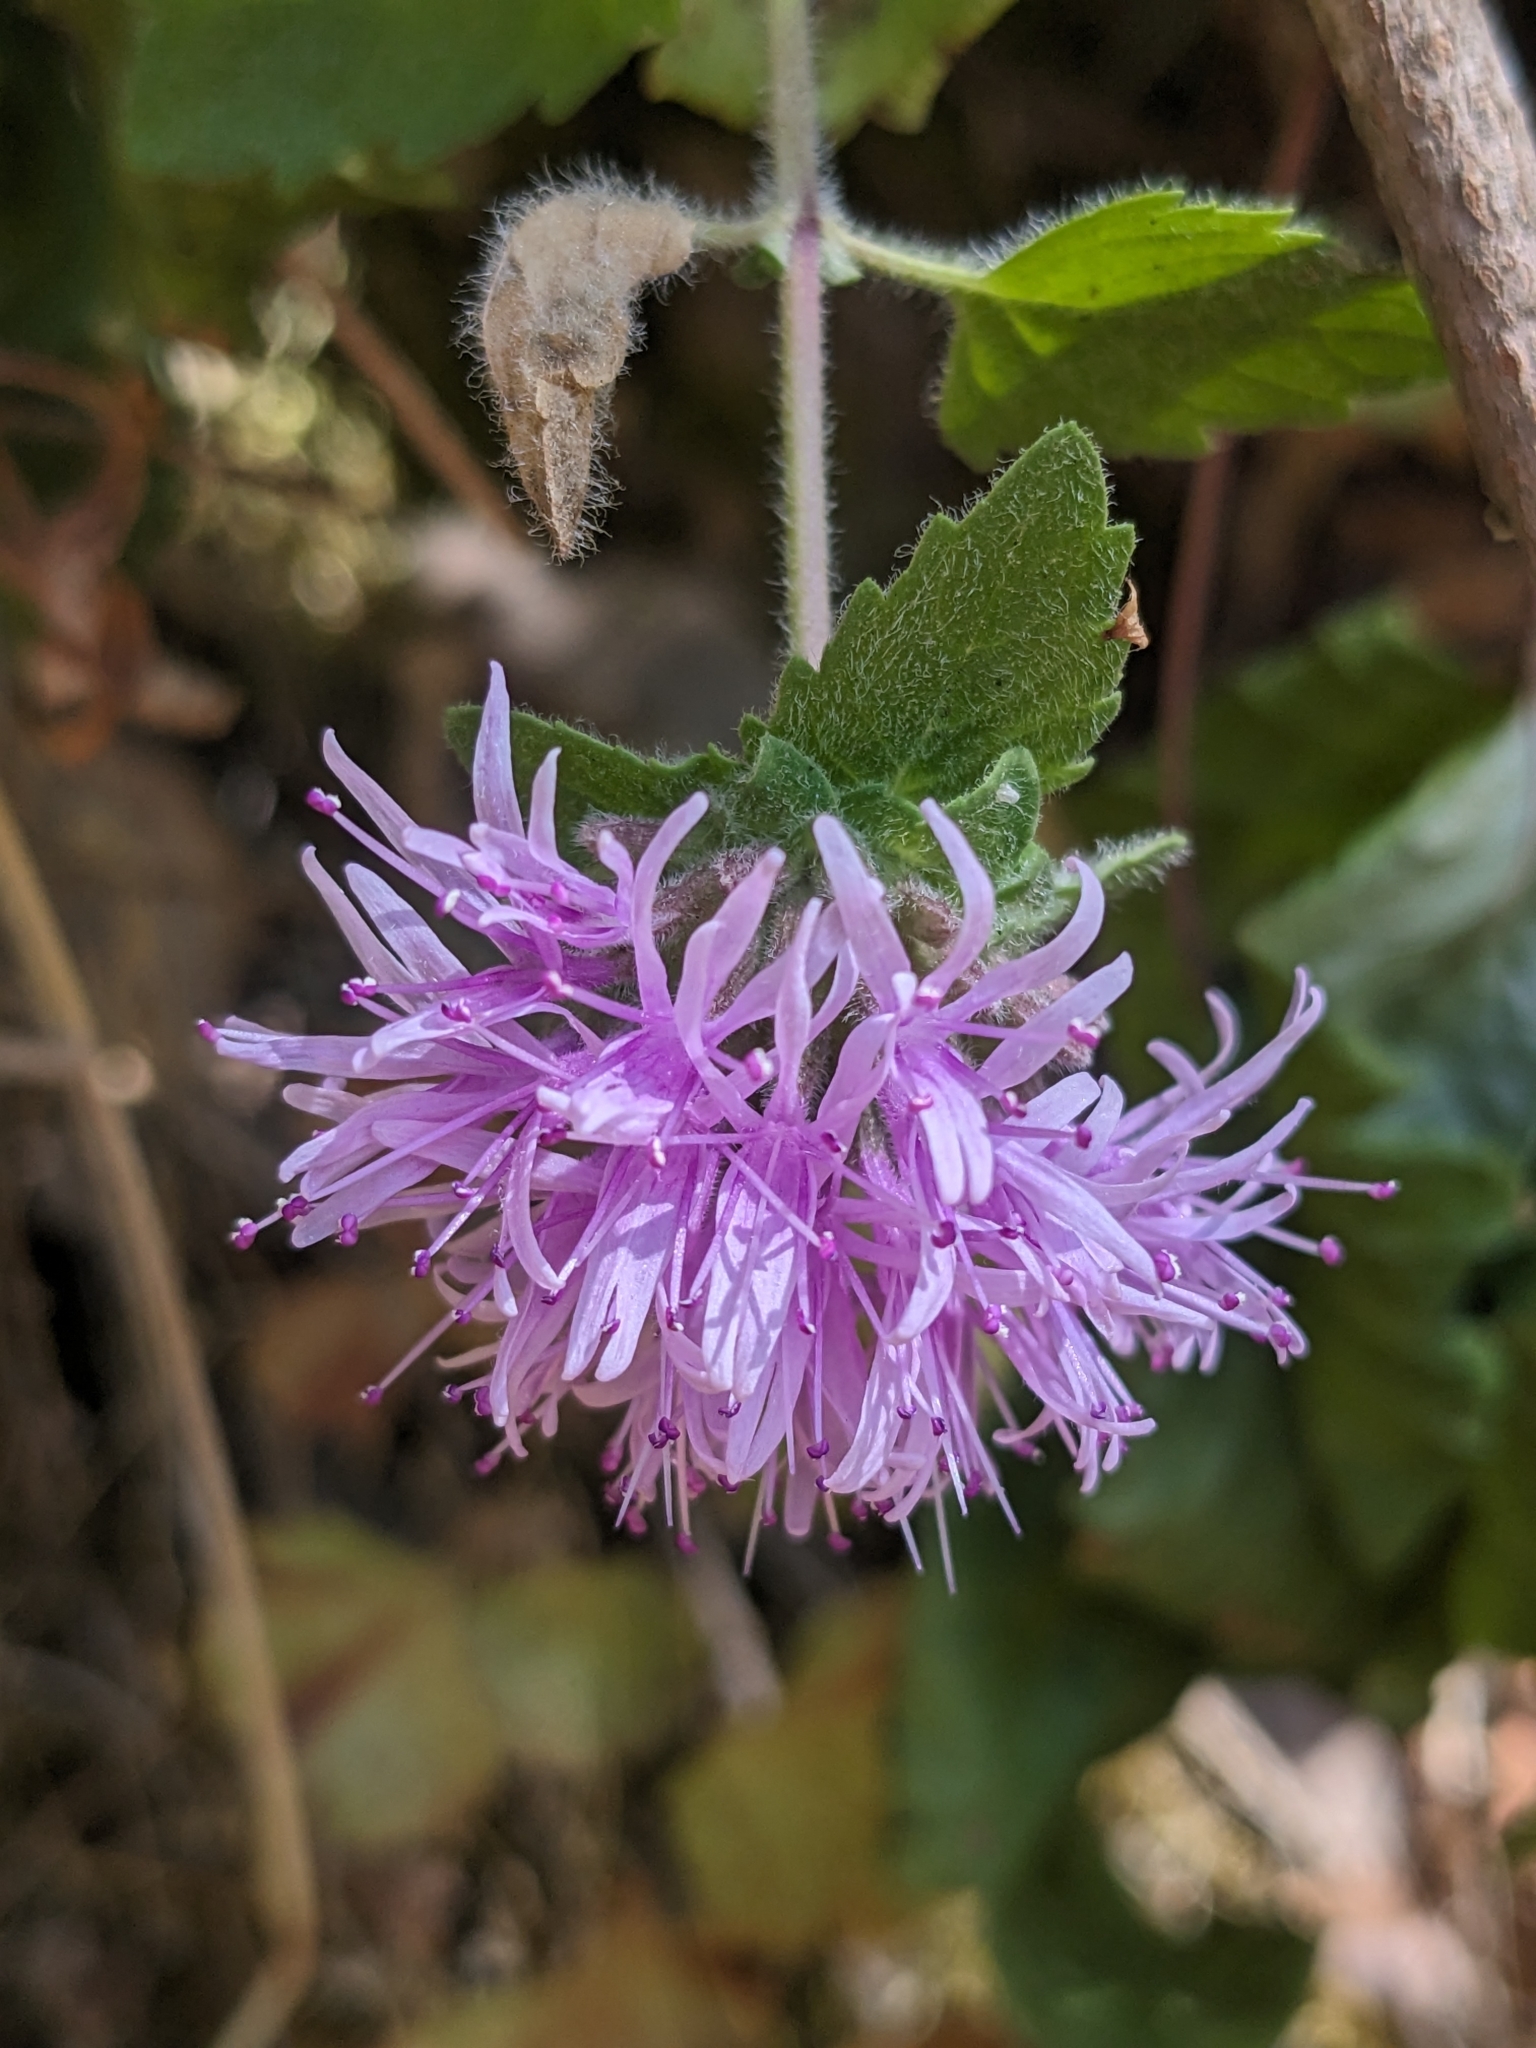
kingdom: Plantae
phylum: Tracheophyta
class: Magnoliopsida
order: Lamiales
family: Lamiaceae
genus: Monardella
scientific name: Monardella odoratissima
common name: Pacific monardella
